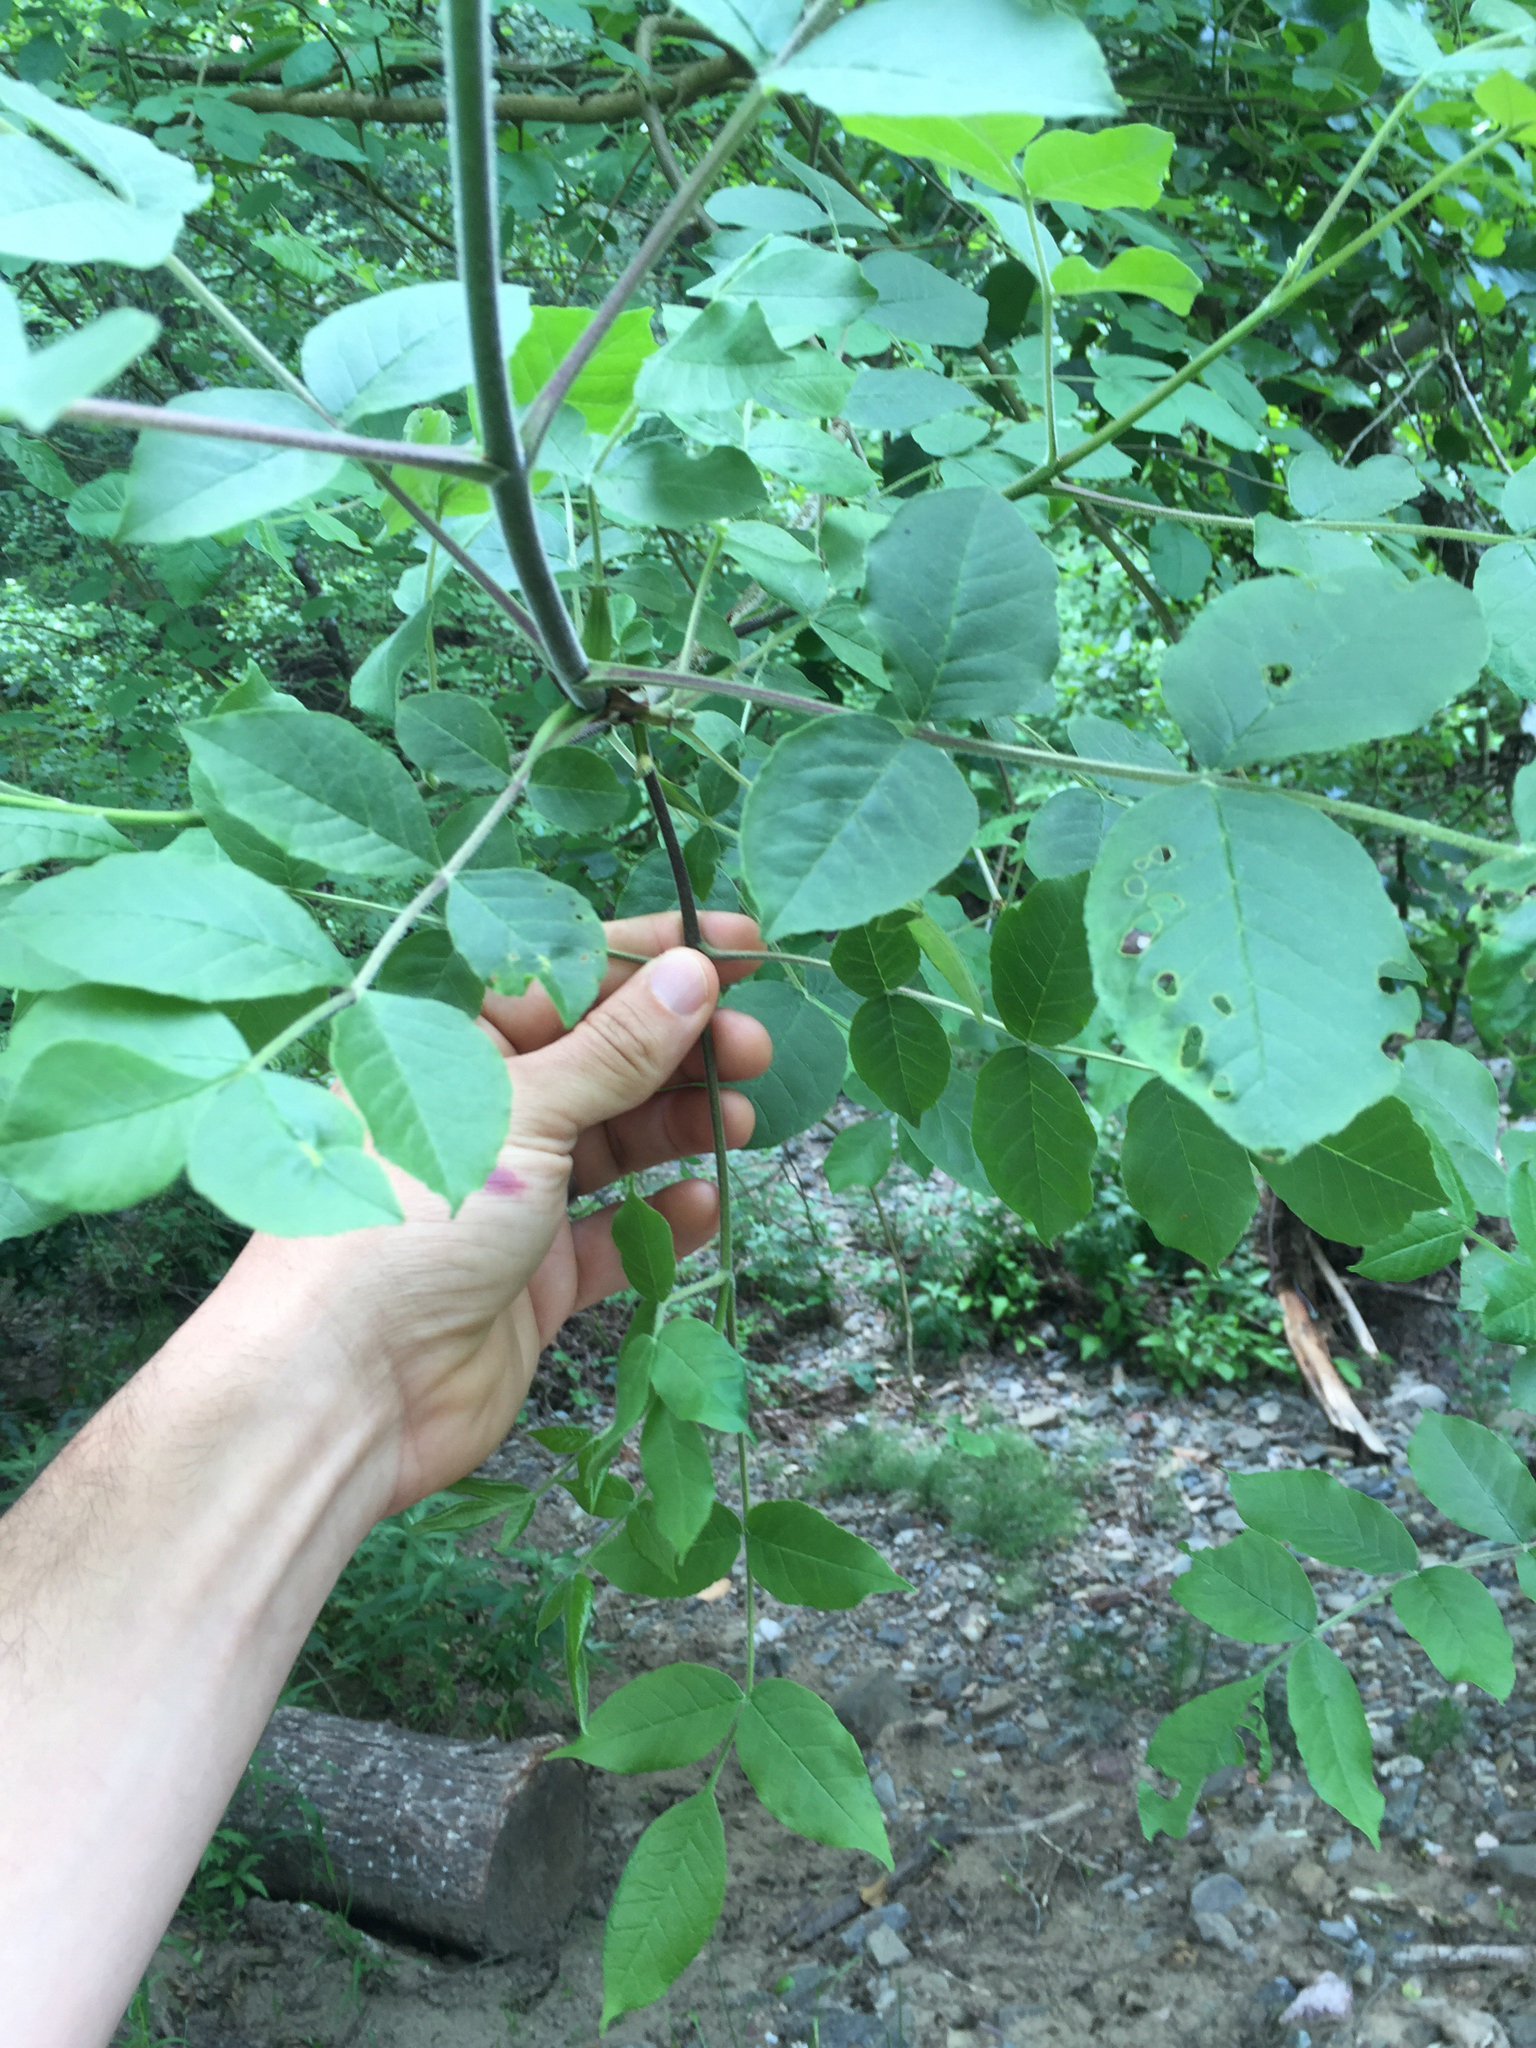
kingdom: Plantae
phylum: Tracheophyta
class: Magnoliopsida
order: Lamiales
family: Oleaceae
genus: Fraxinus
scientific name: Fraxinus latifolia
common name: Oregon ash
